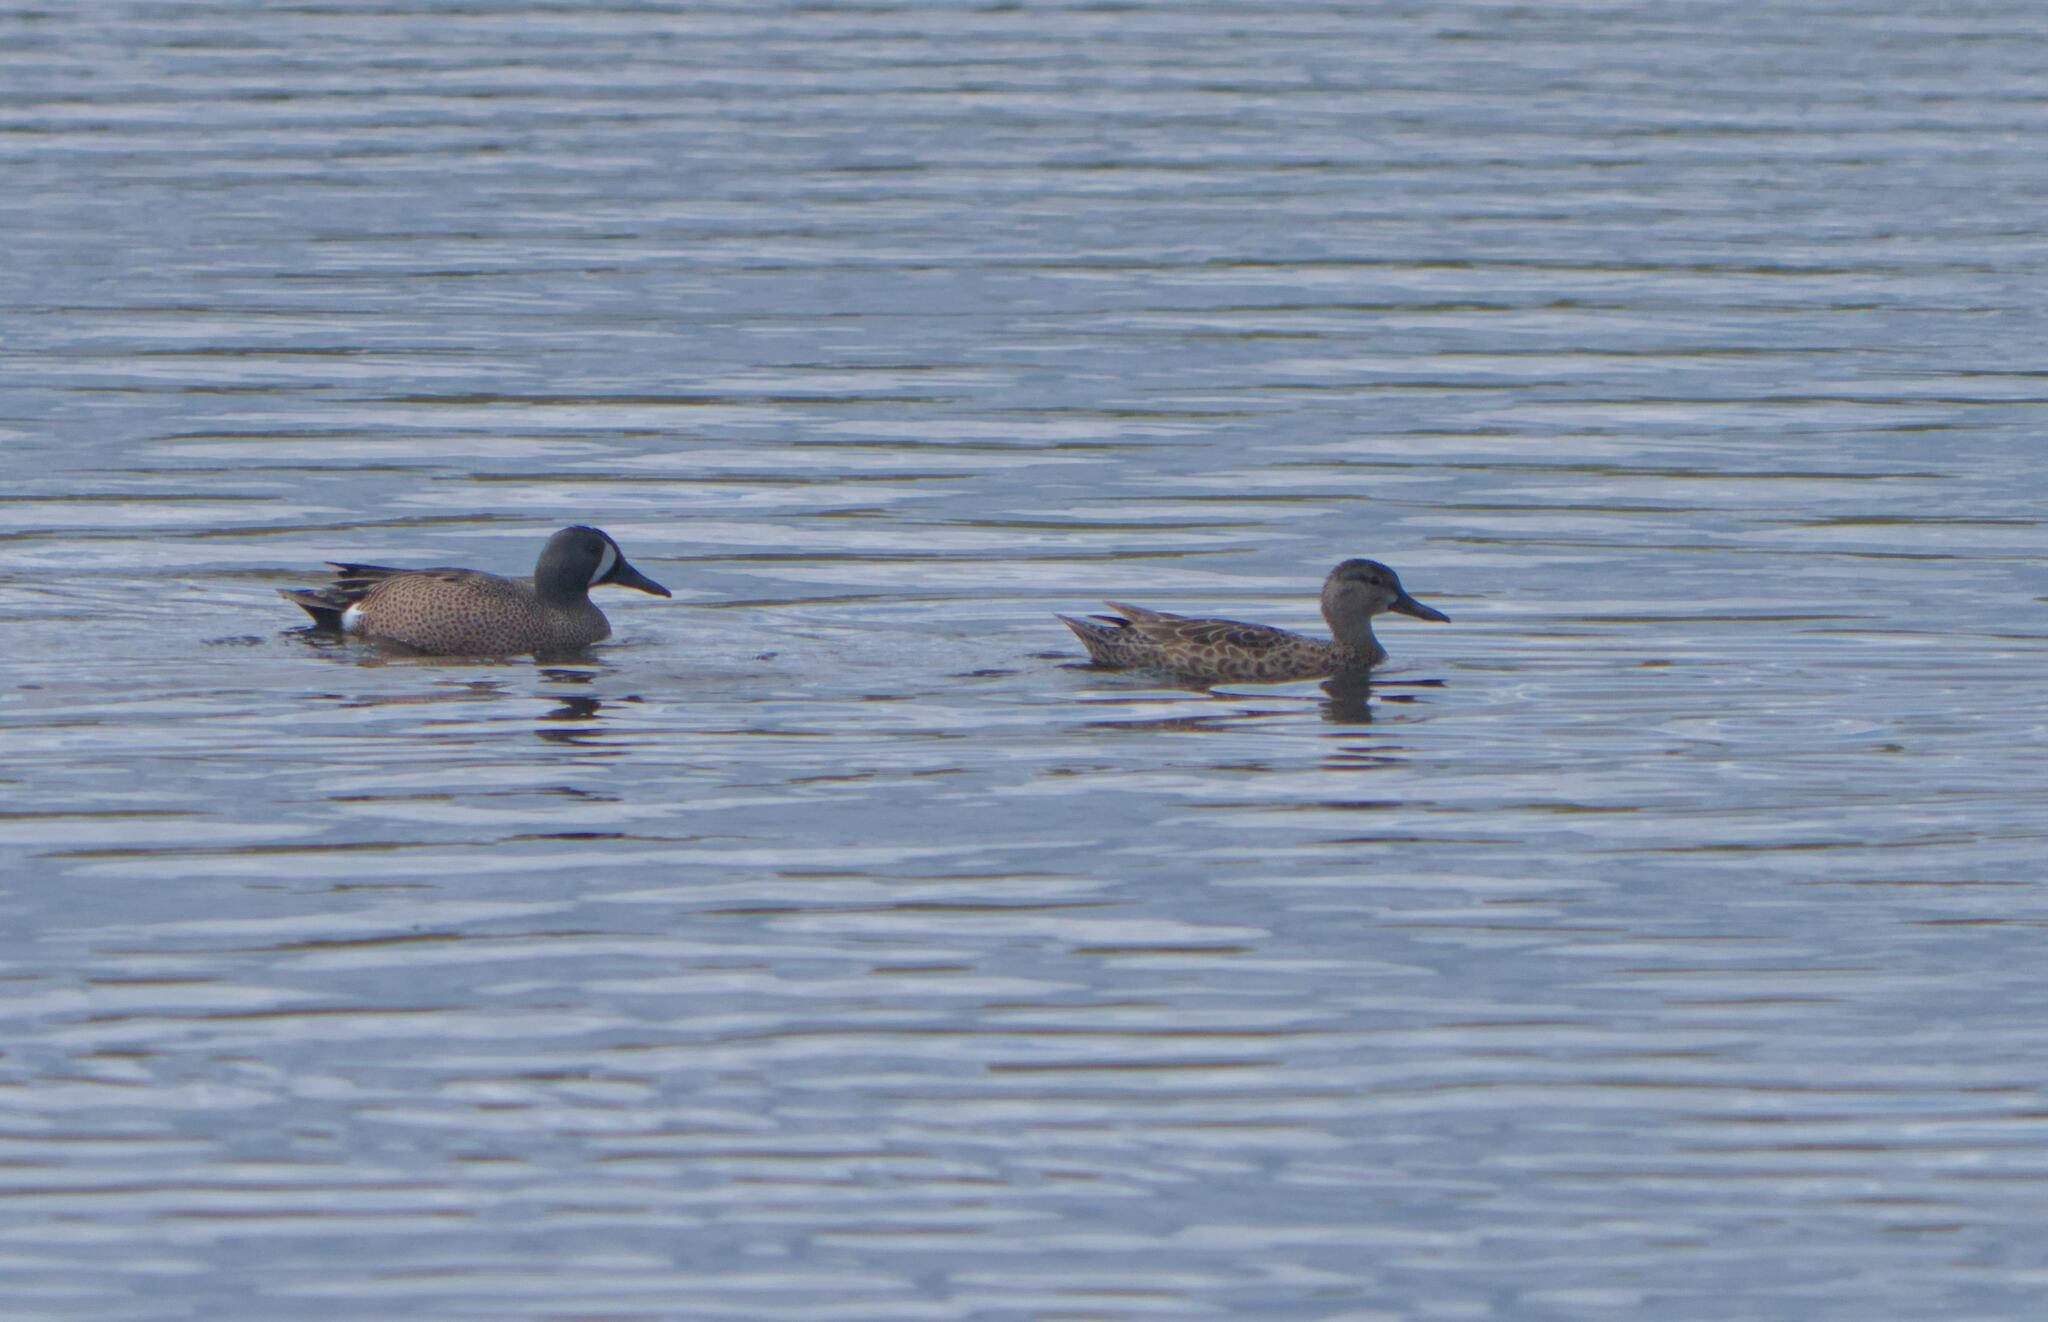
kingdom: Animalia
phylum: Chordata
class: Aves
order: Anseriformes
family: Anatidae
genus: Spatula
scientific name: Spatula discors
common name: Blue-winged teal
